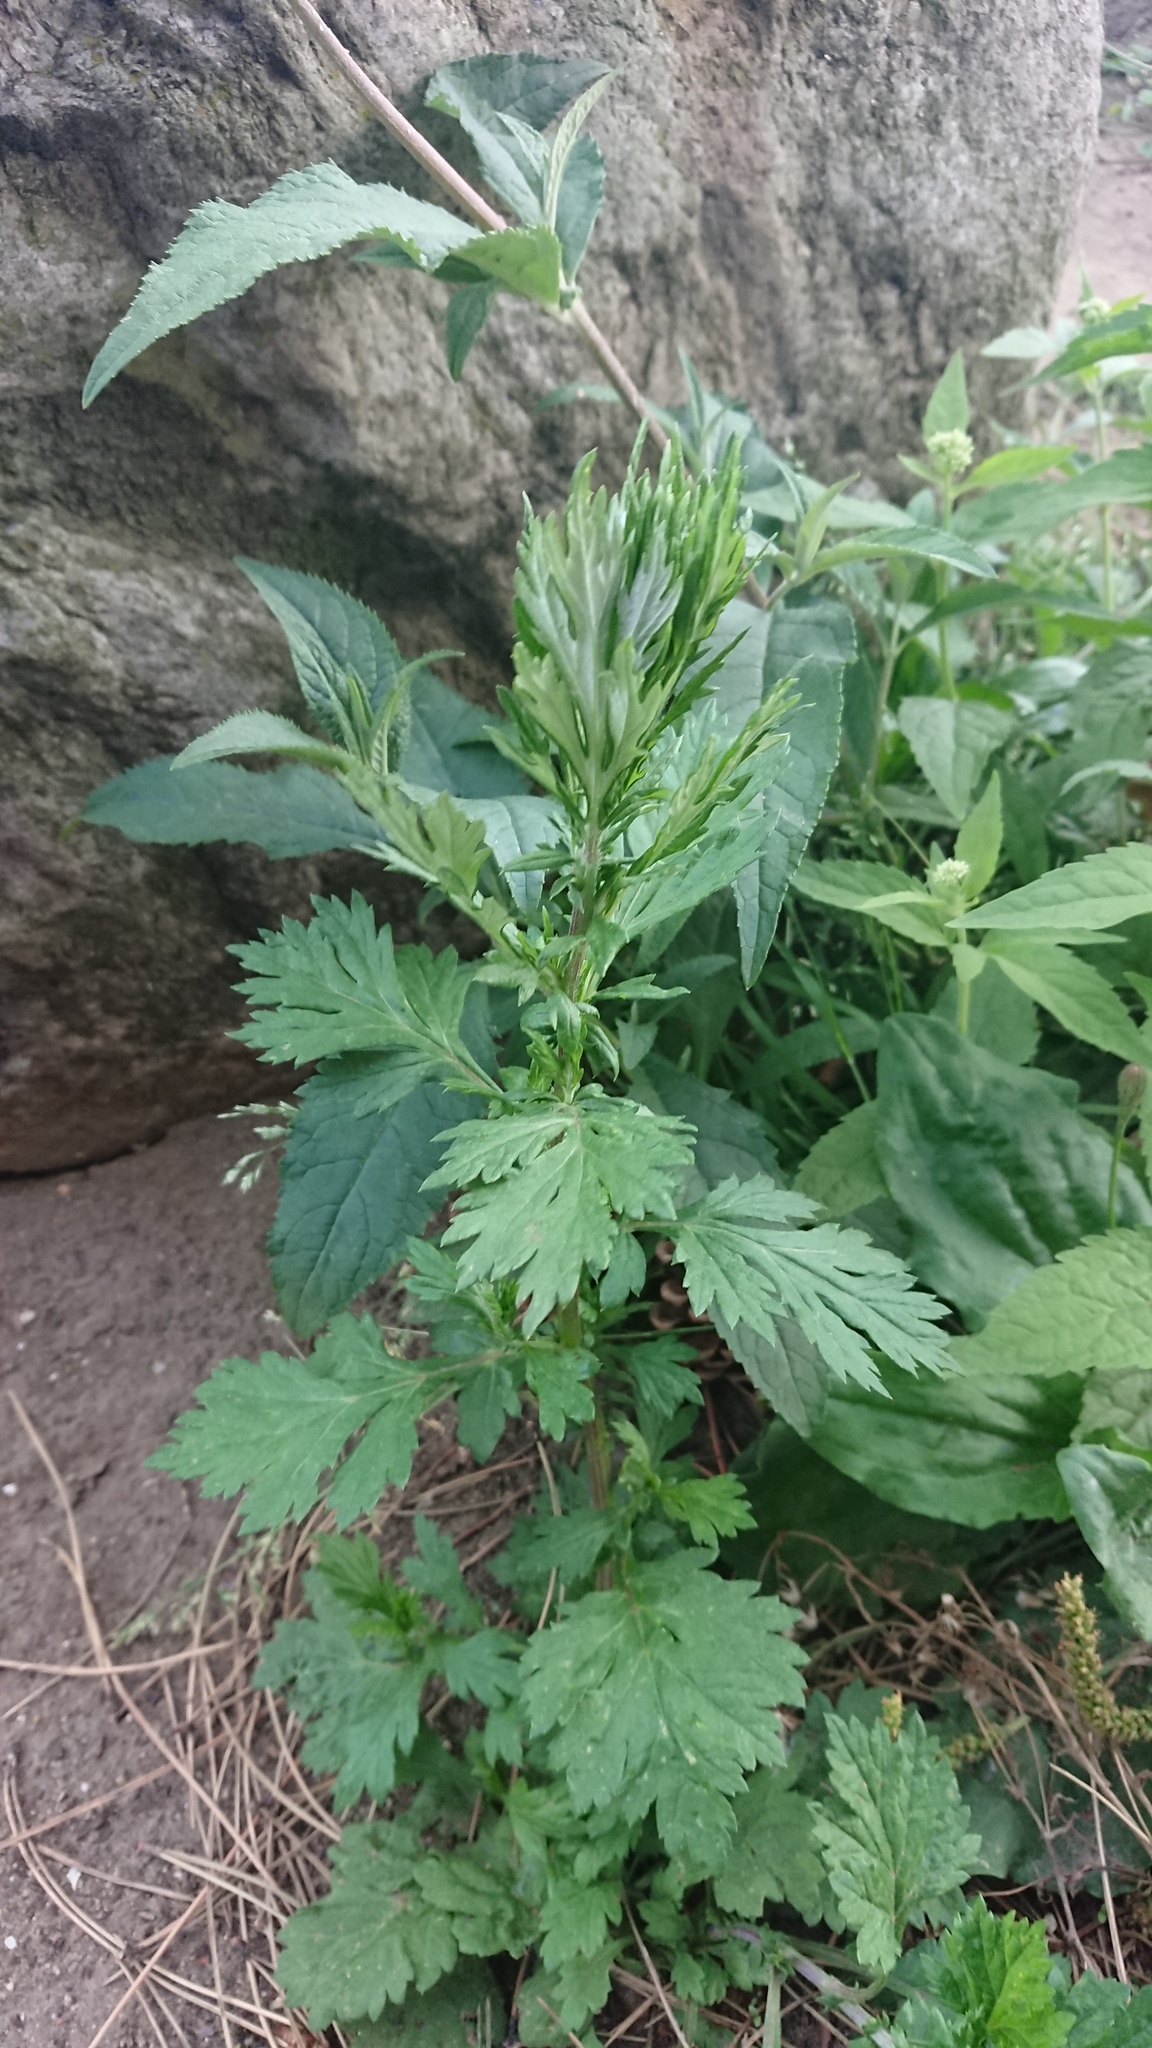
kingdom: Plantae
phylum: Tracheophyta
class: Magnoliopsida
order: Asterales
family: Asteraceae
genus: Artemisia
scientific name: Artemisia vulgaris
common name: Mugwort
